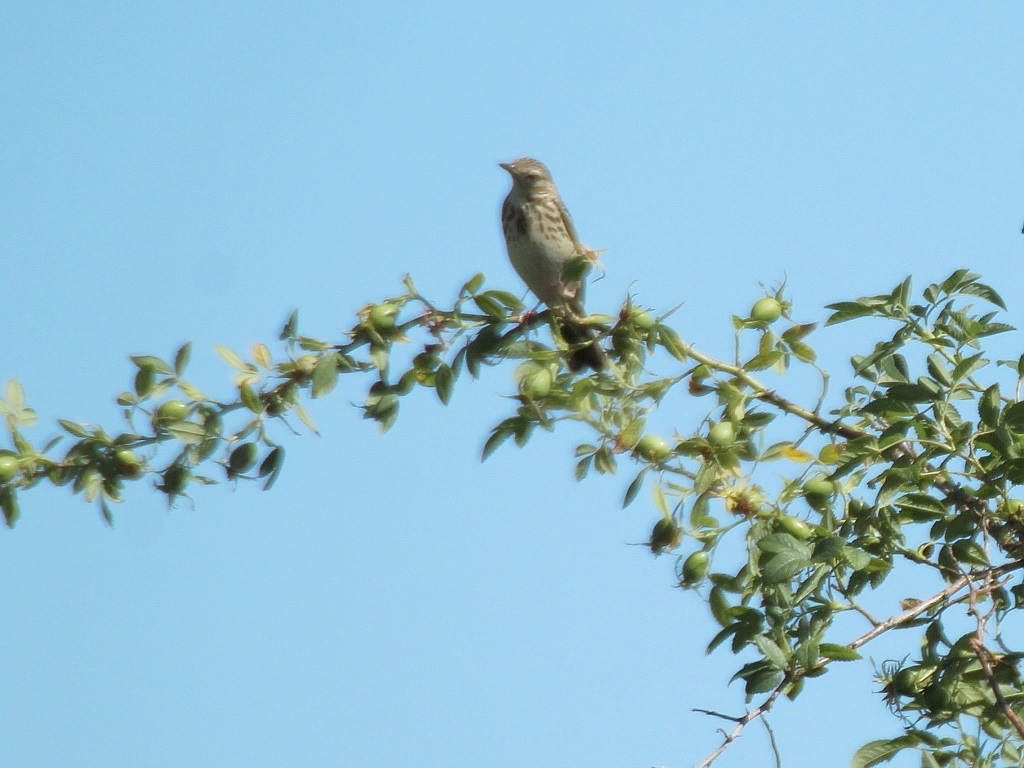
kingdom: Animalia
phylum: Chordata
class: Aves
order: Passeriformes
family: Motacillidae
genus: Anthus
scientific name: Anthus trivialis
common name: Tree pipit
